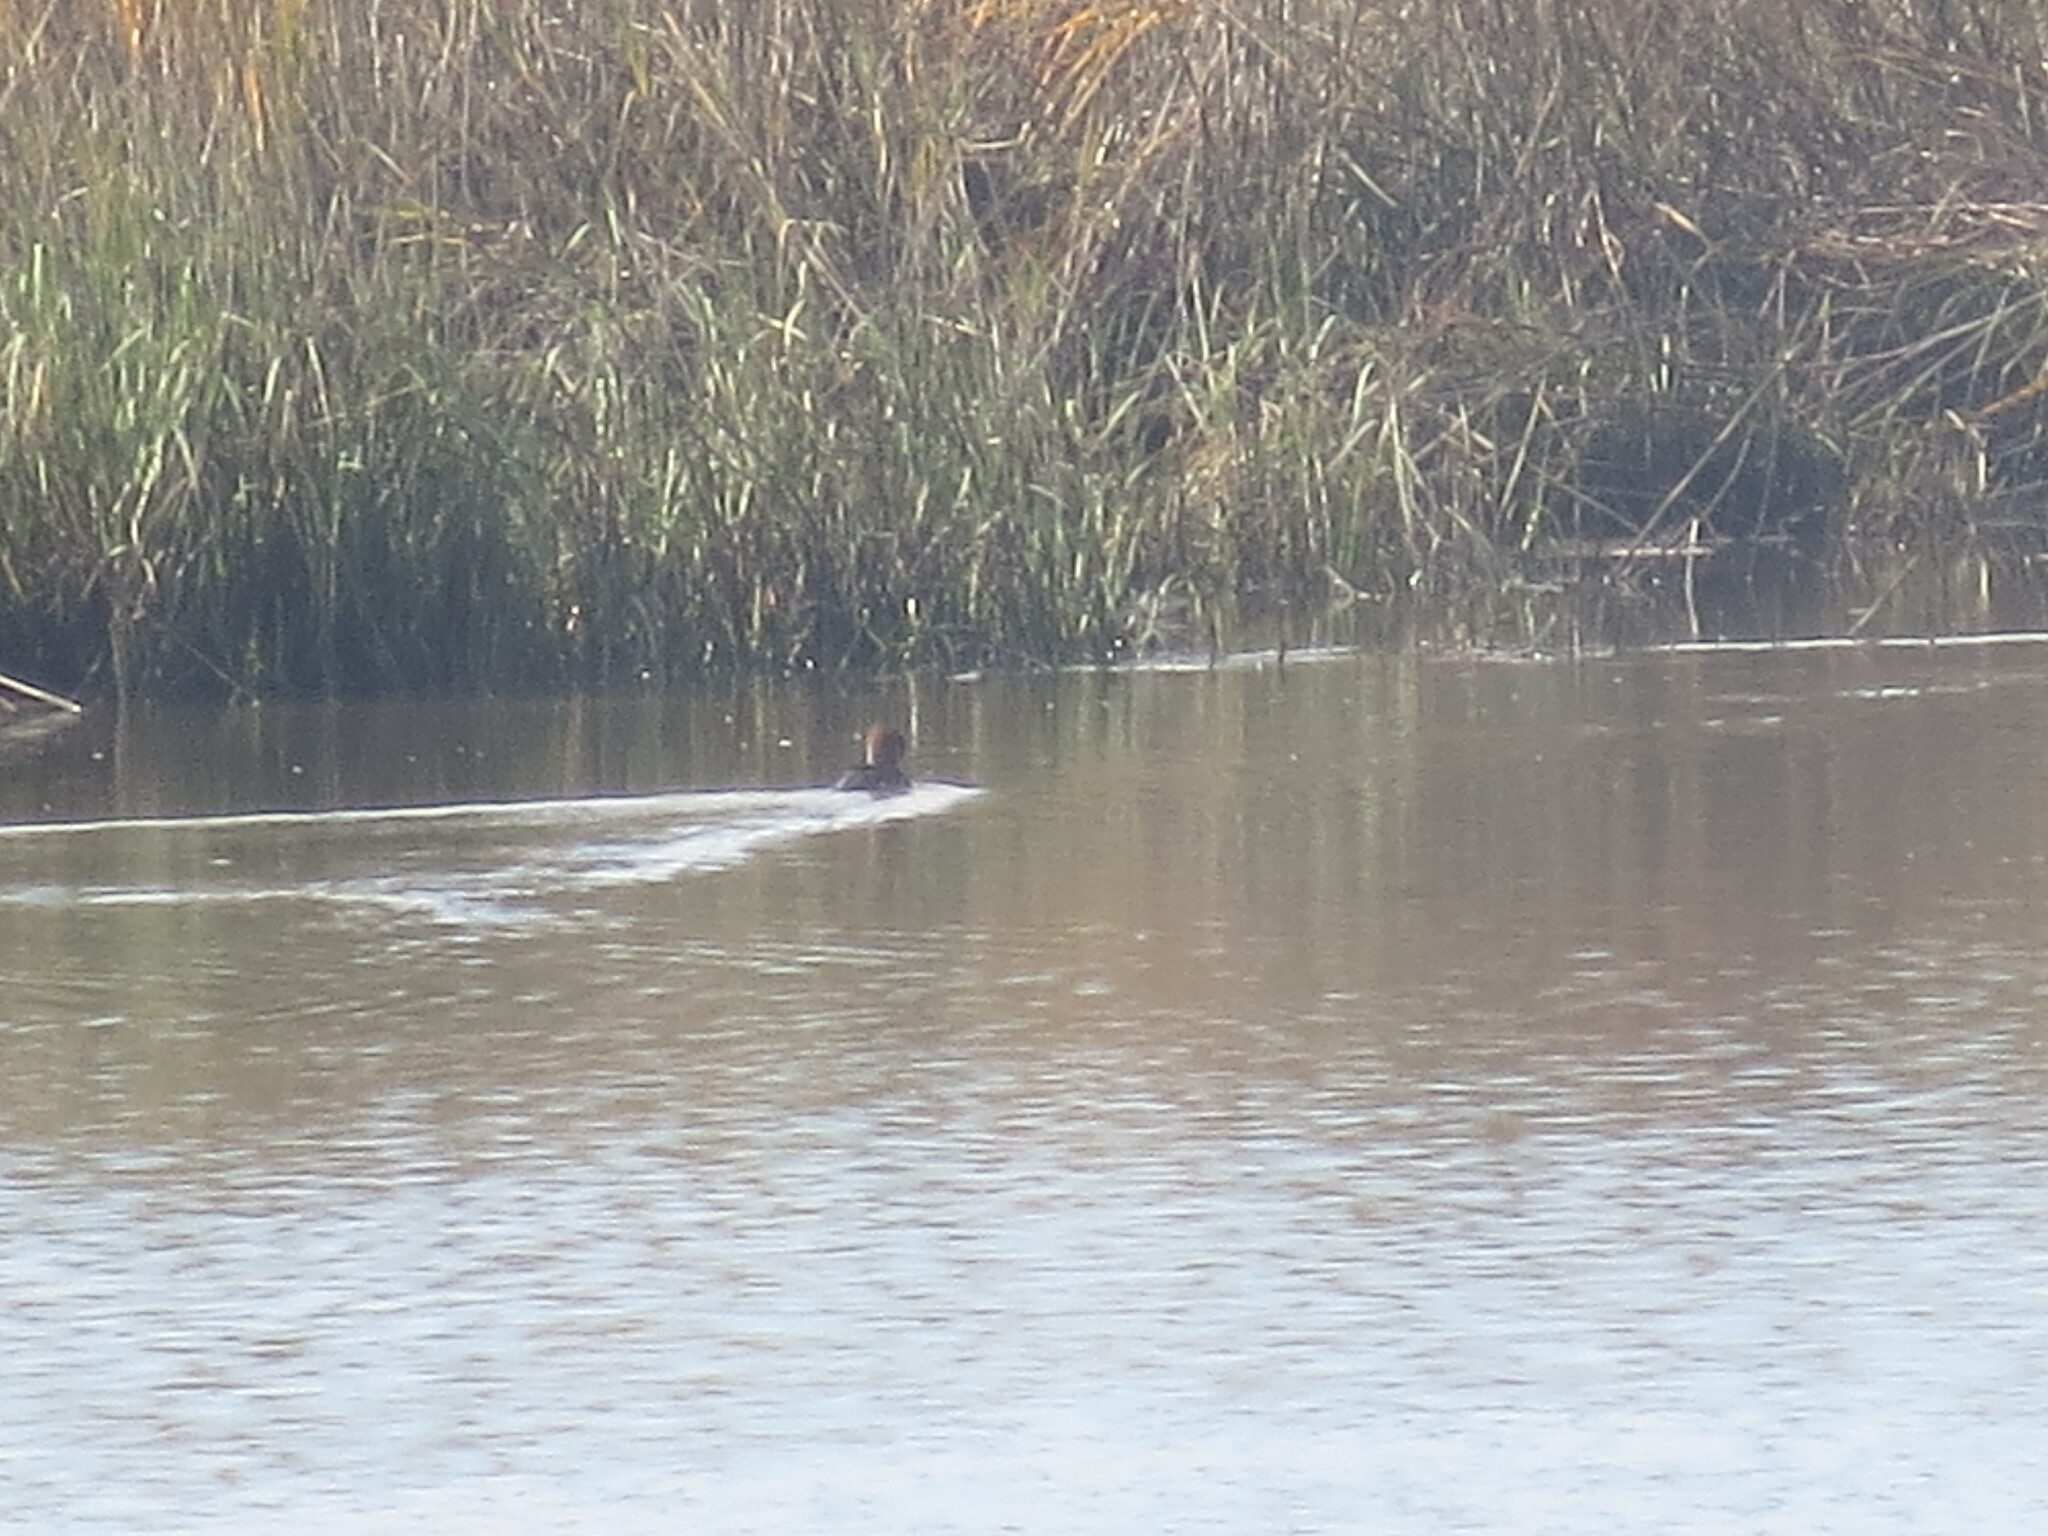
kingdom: Animalia
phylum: Chordata
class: Aves
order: Anseriformes
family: Anatidae
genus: Lophodytes
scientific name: Lophodytes cucullatus
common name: Hooded merganser
